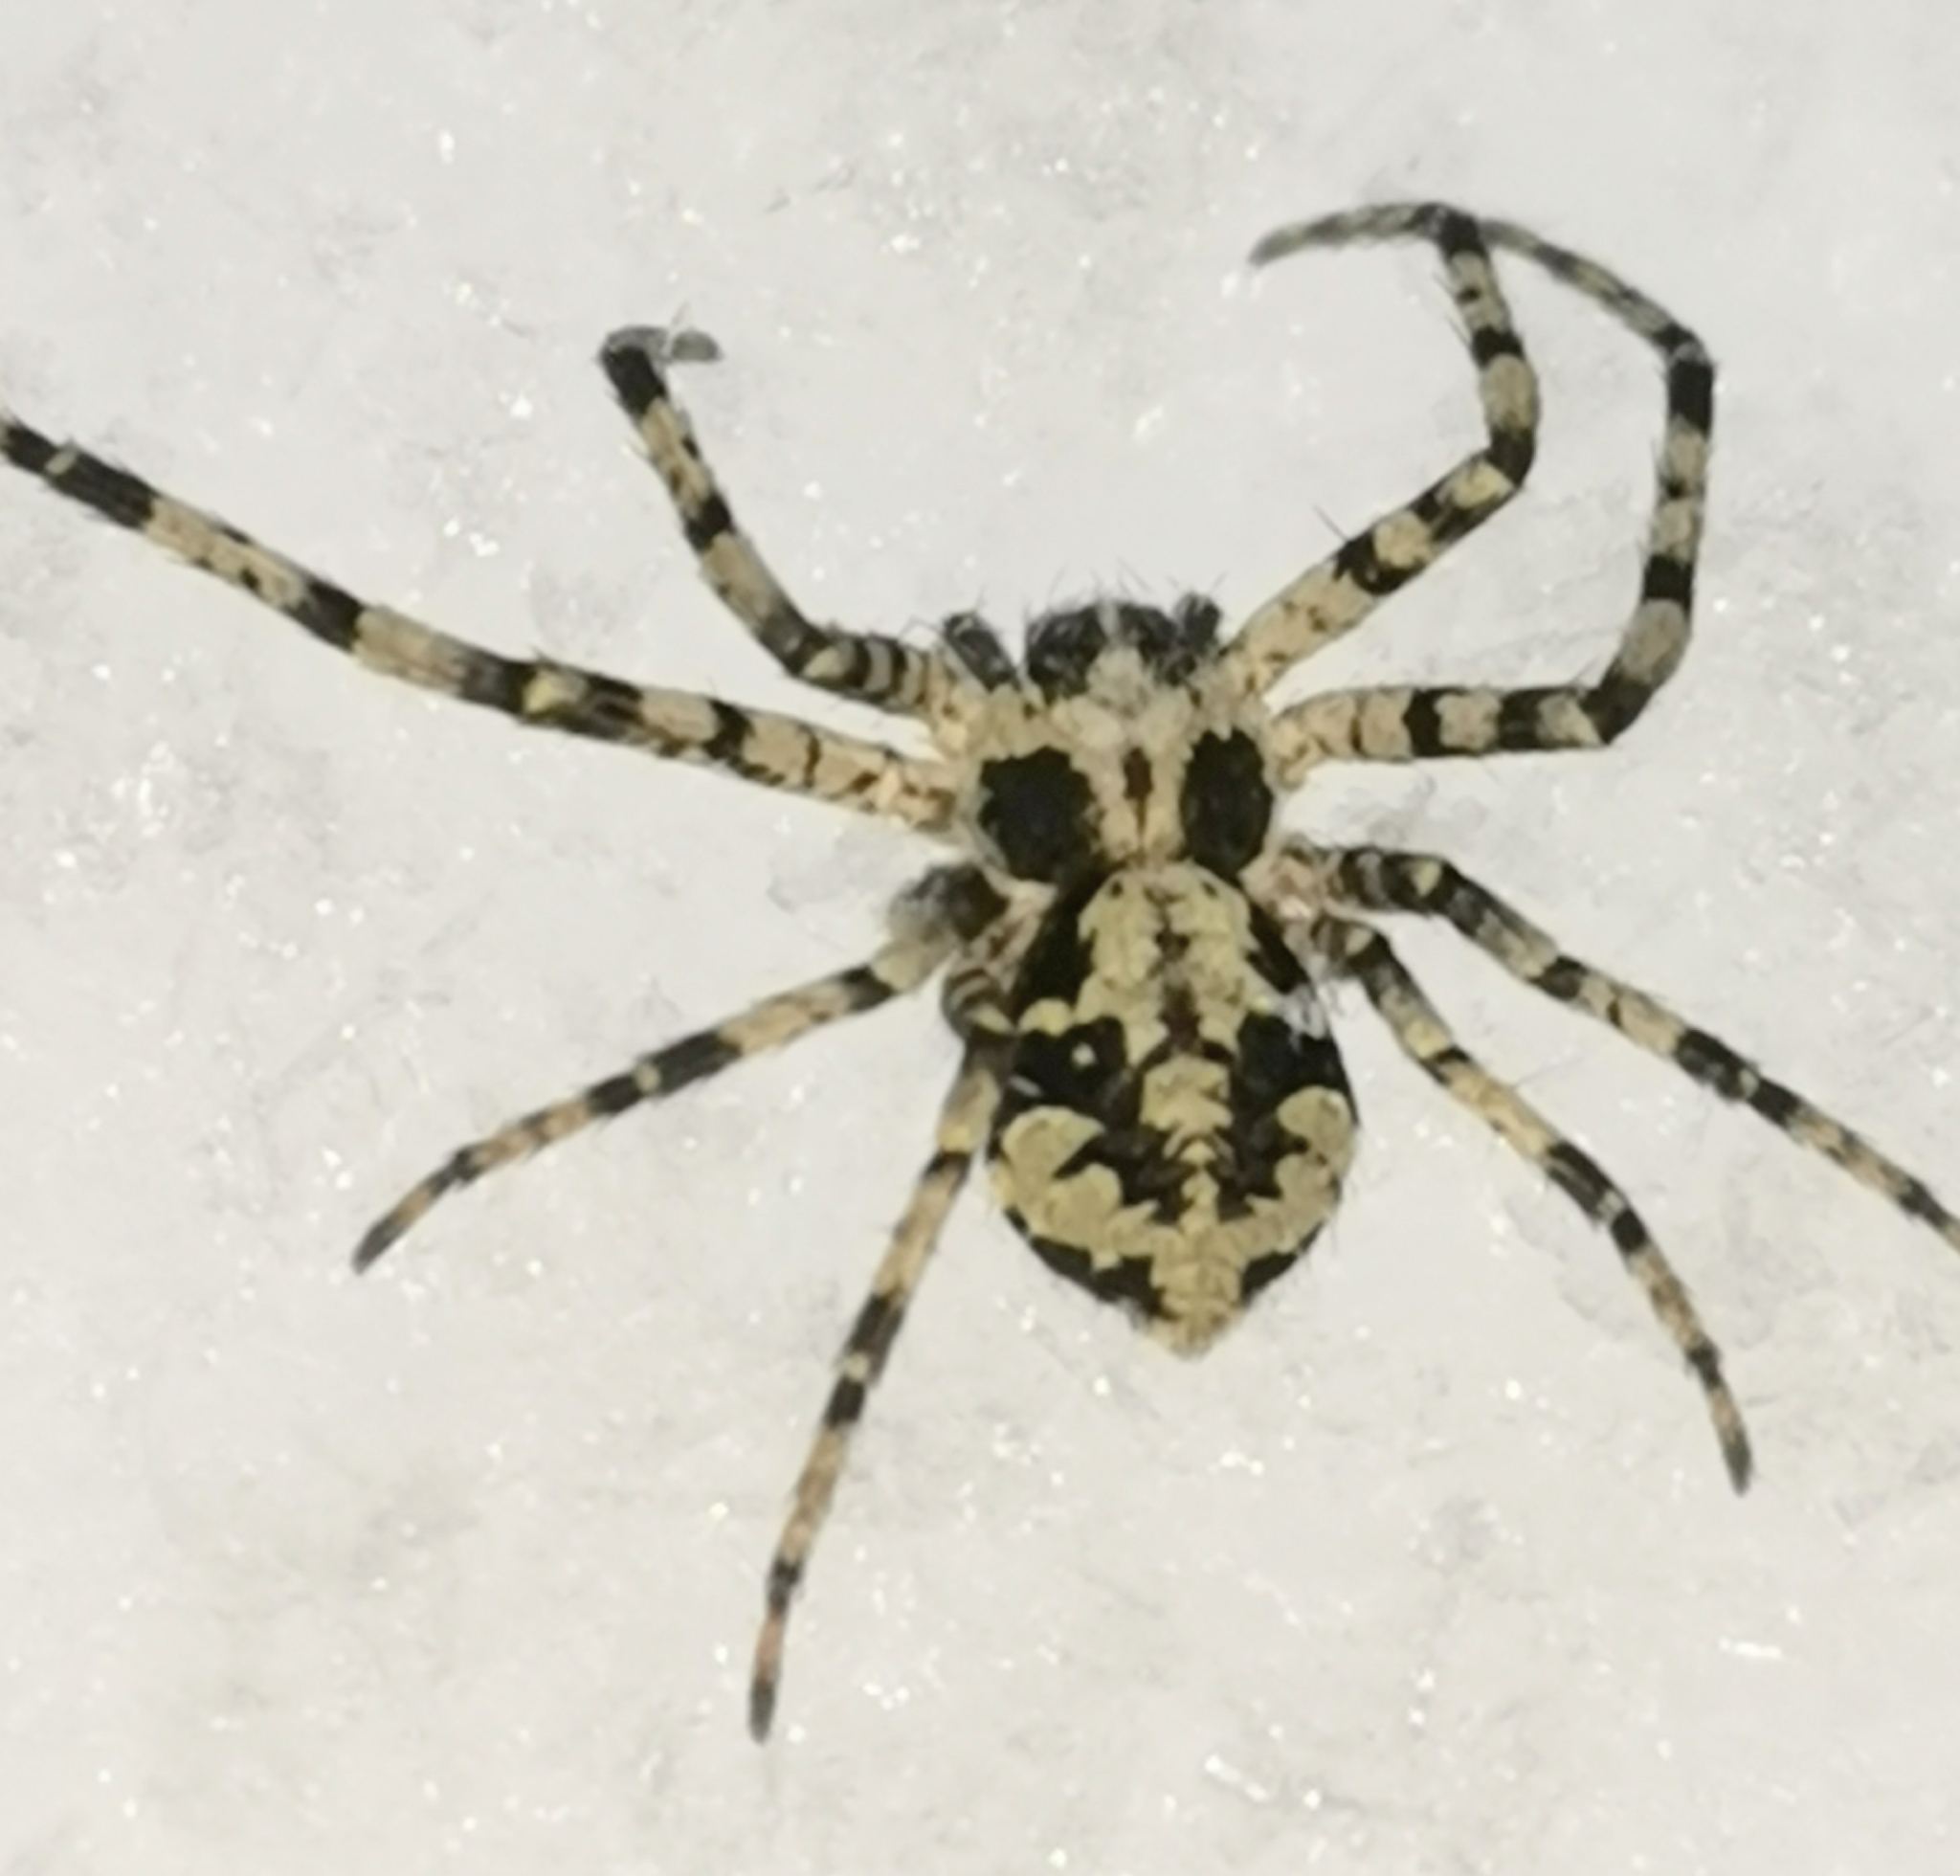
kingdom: Animalia
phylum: Arthropoda
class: Arachnida
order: Araneae
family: Philodromidae
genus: Philodromus
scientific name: Philodromus margaritatus
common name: Lichen running-spider
